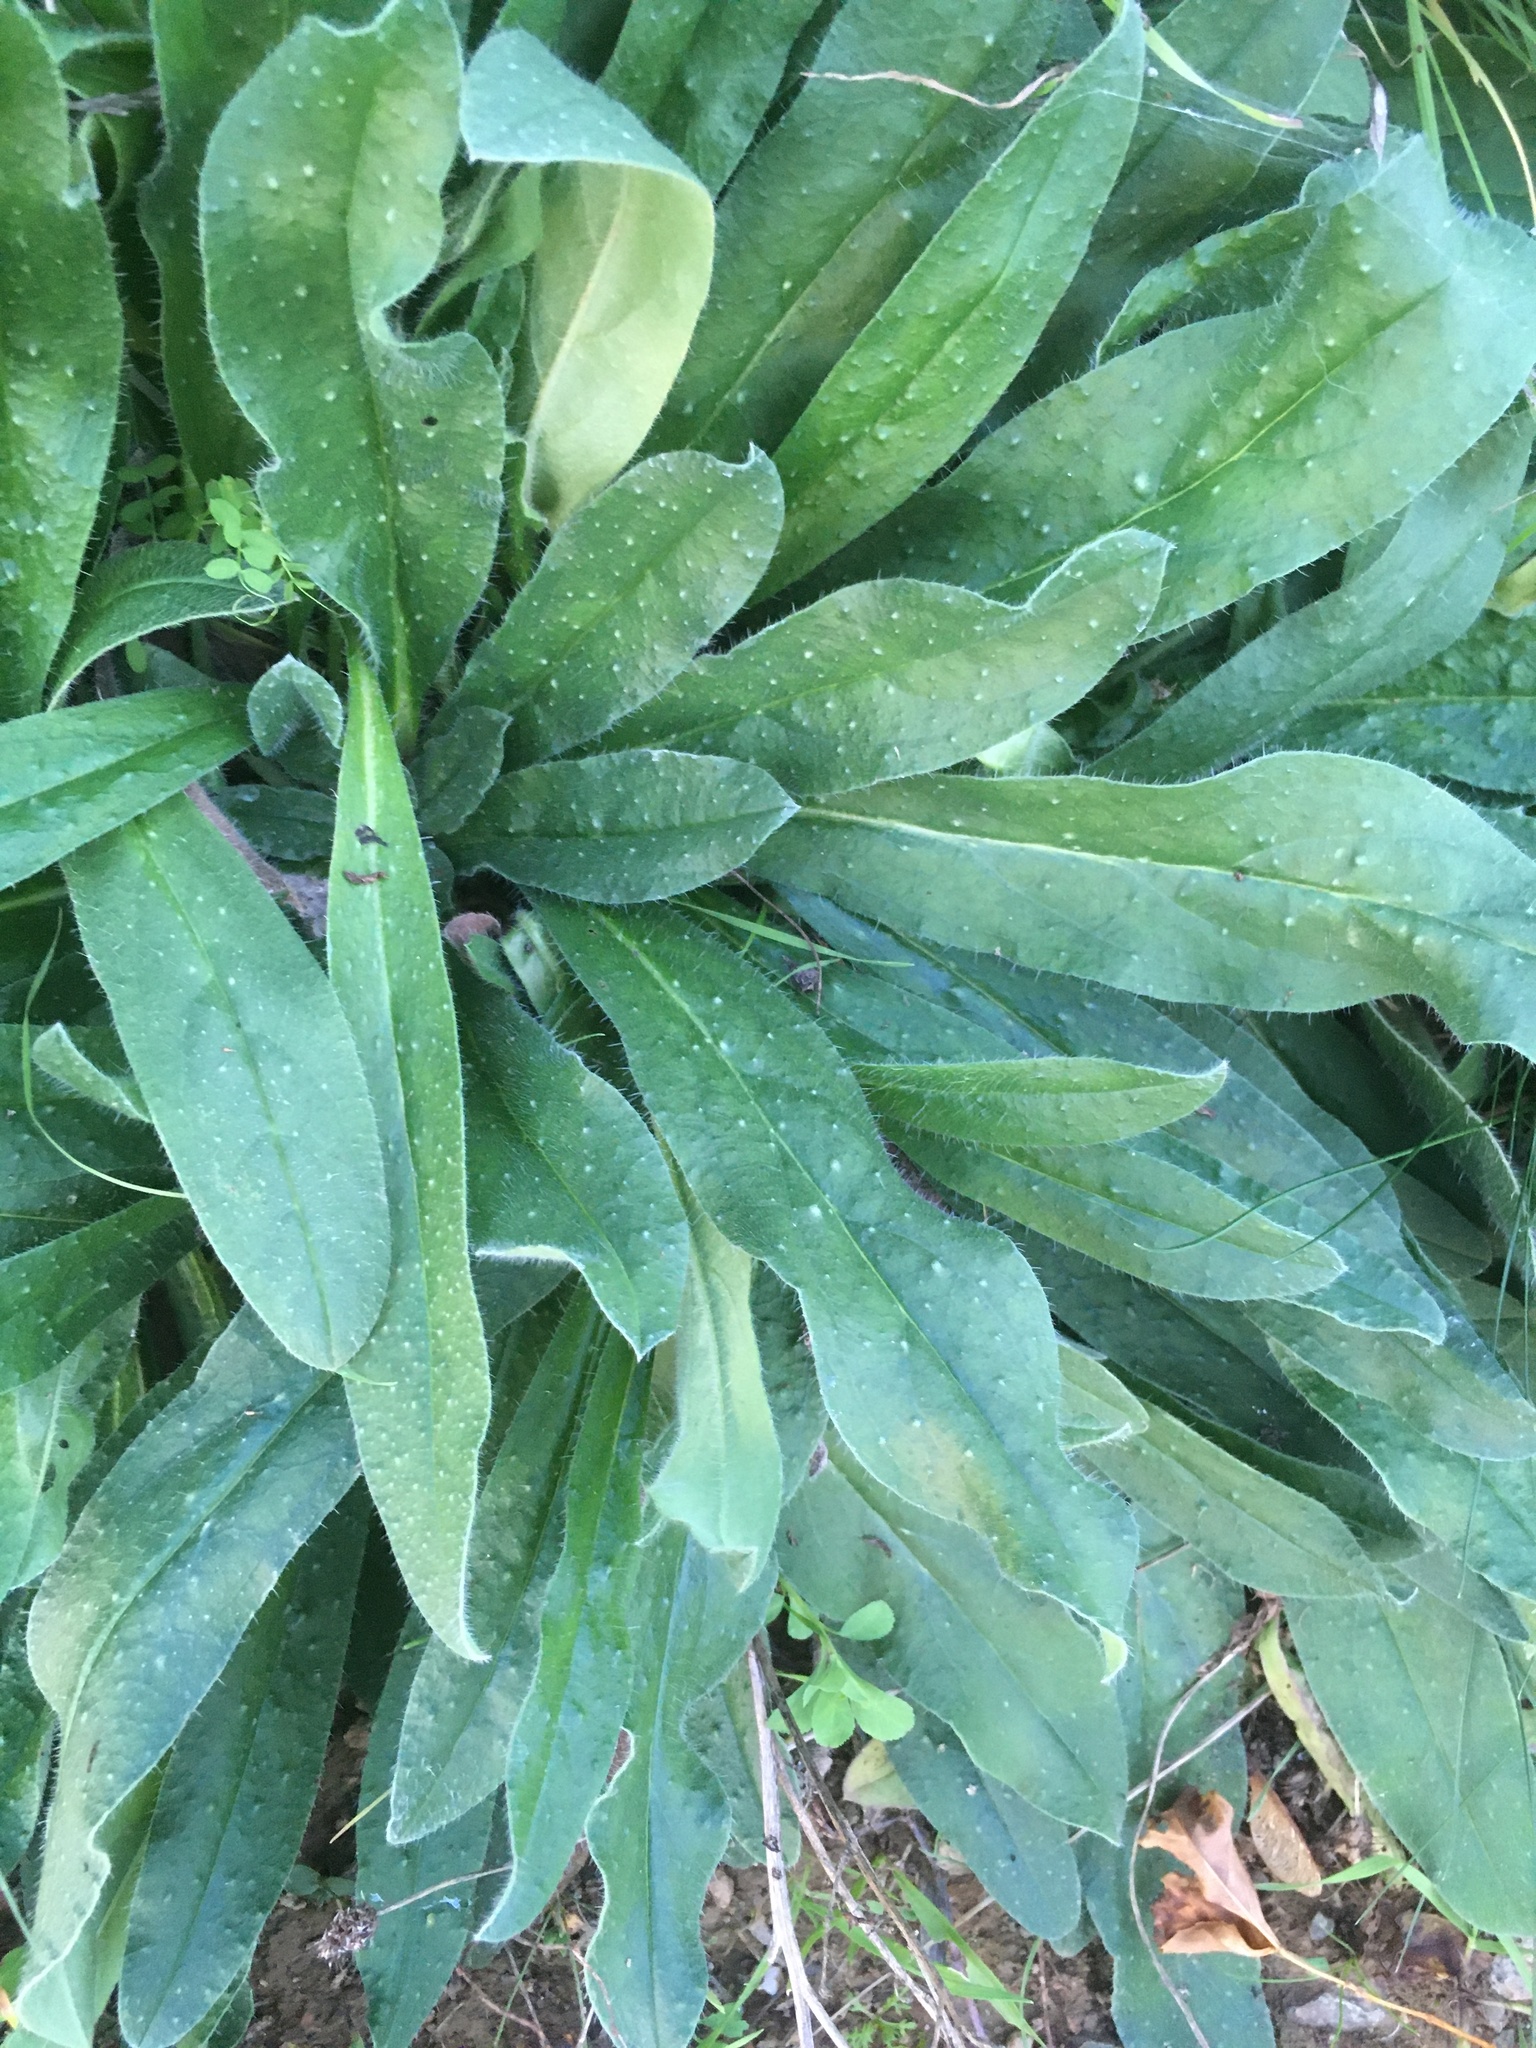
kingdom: Plantae
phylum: Tracheophyta
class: Magnoliopsida
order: Boraginales
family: Boraginaceae
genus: Echium
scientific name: Echium vulgare
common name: Common viper's bugloss
